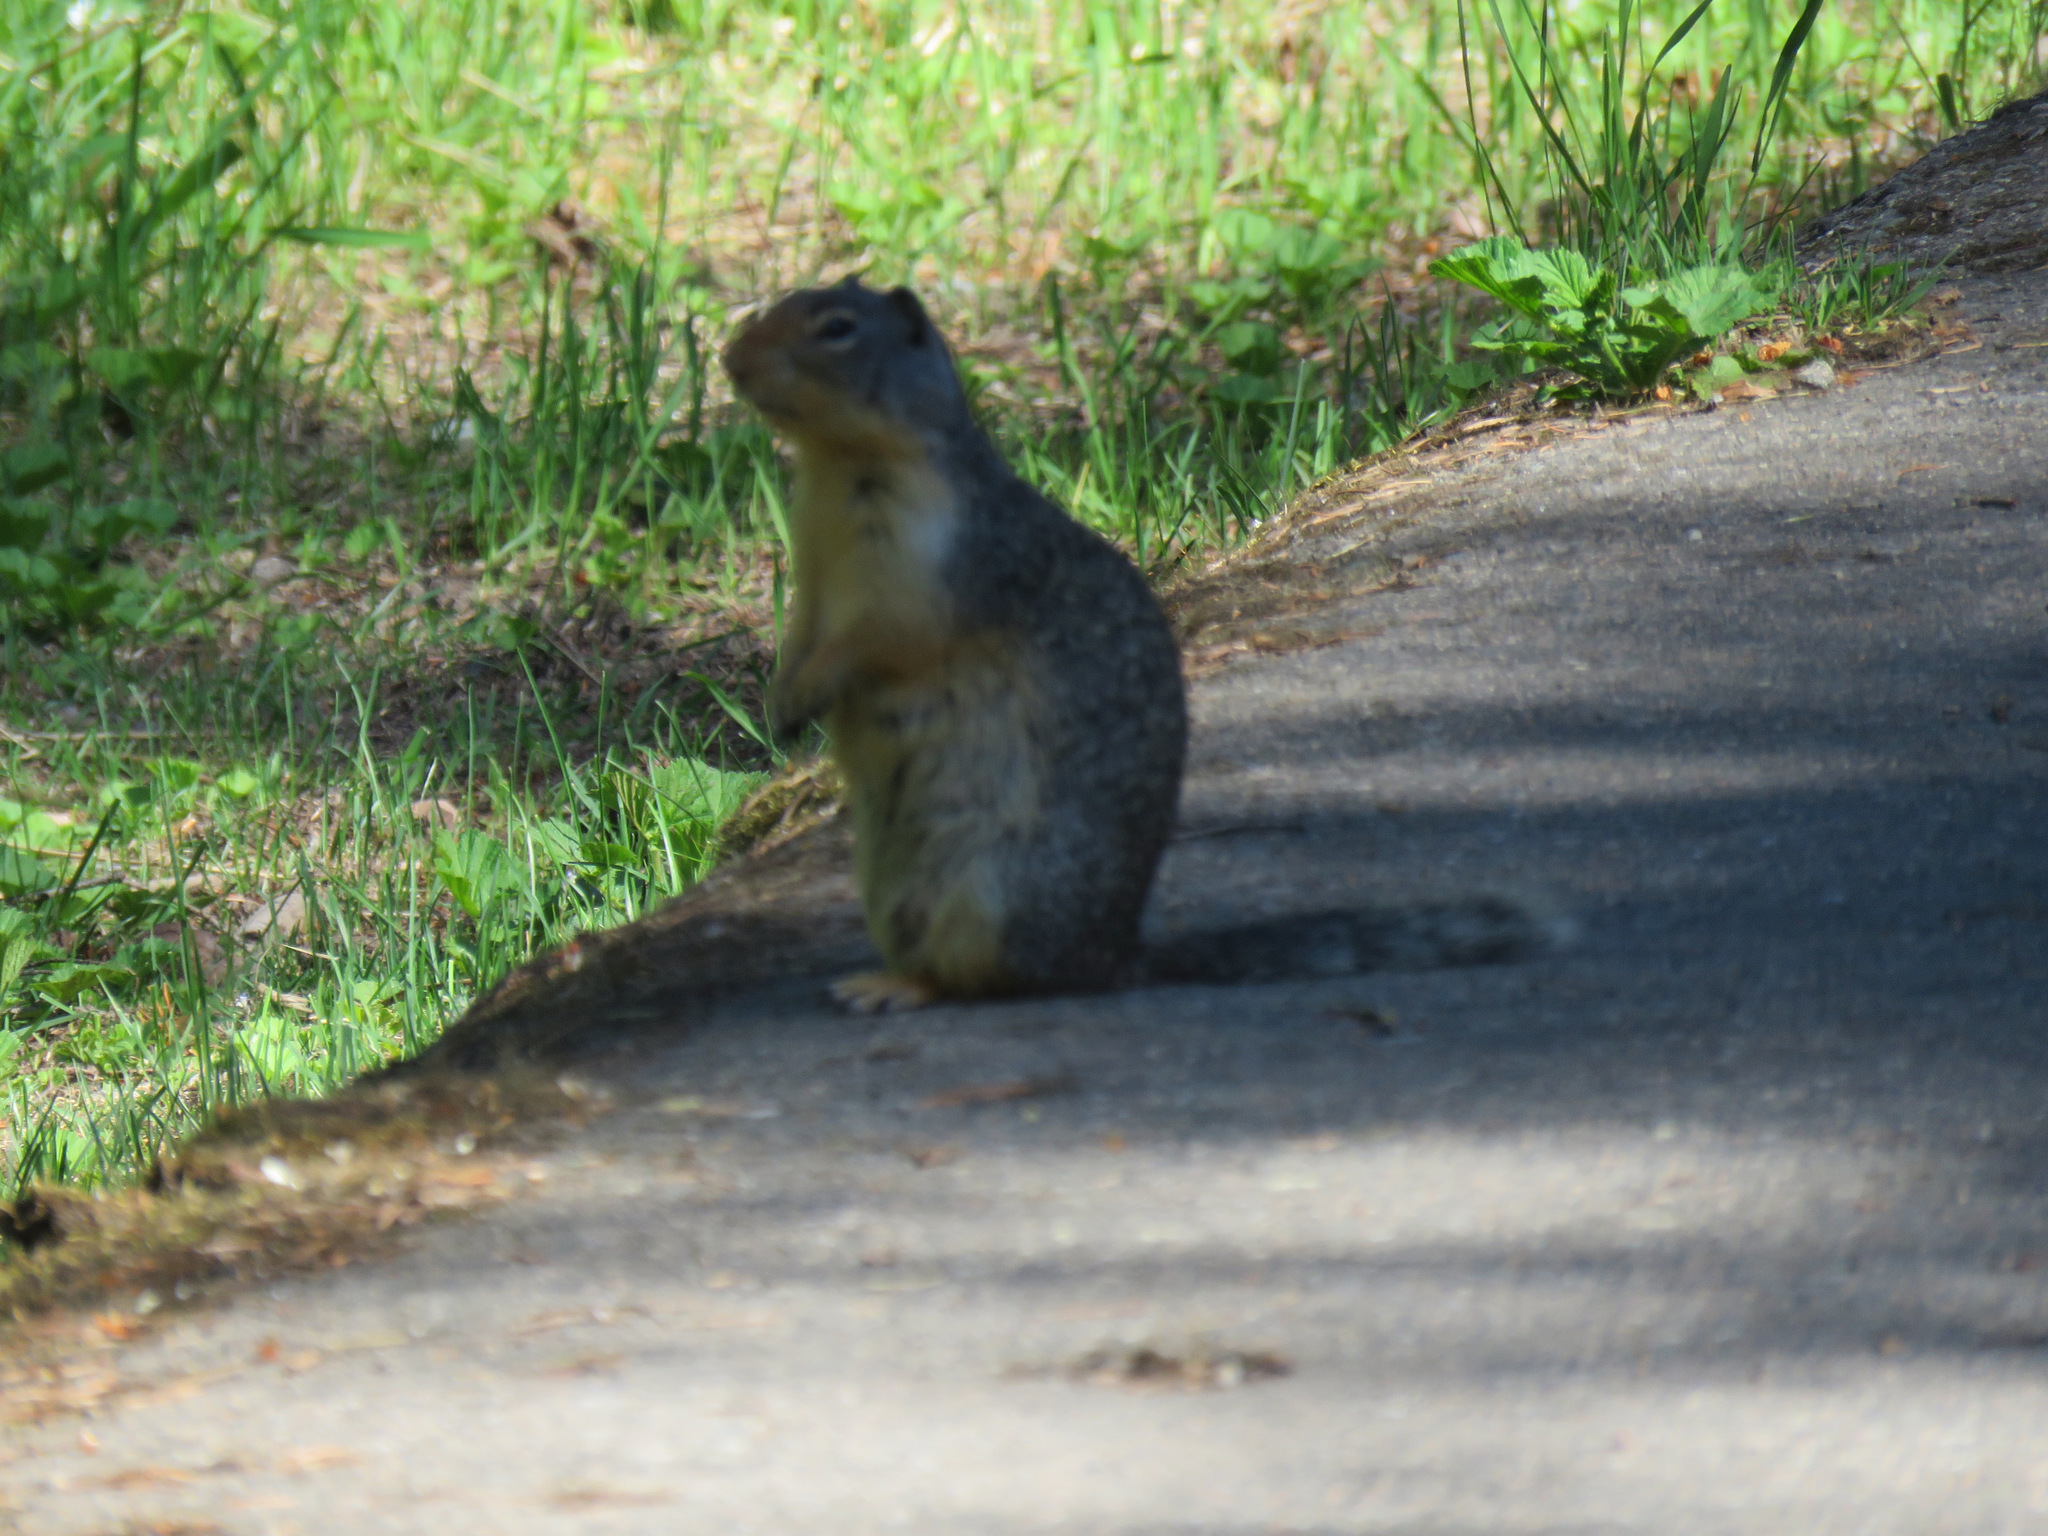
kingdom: Animalia
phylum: Chordata
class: Mammalia
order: Rodentia
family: Sciuridae
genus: Urocitellus
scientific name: Urocitellus columbianus
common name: Columbian ground squirrel
